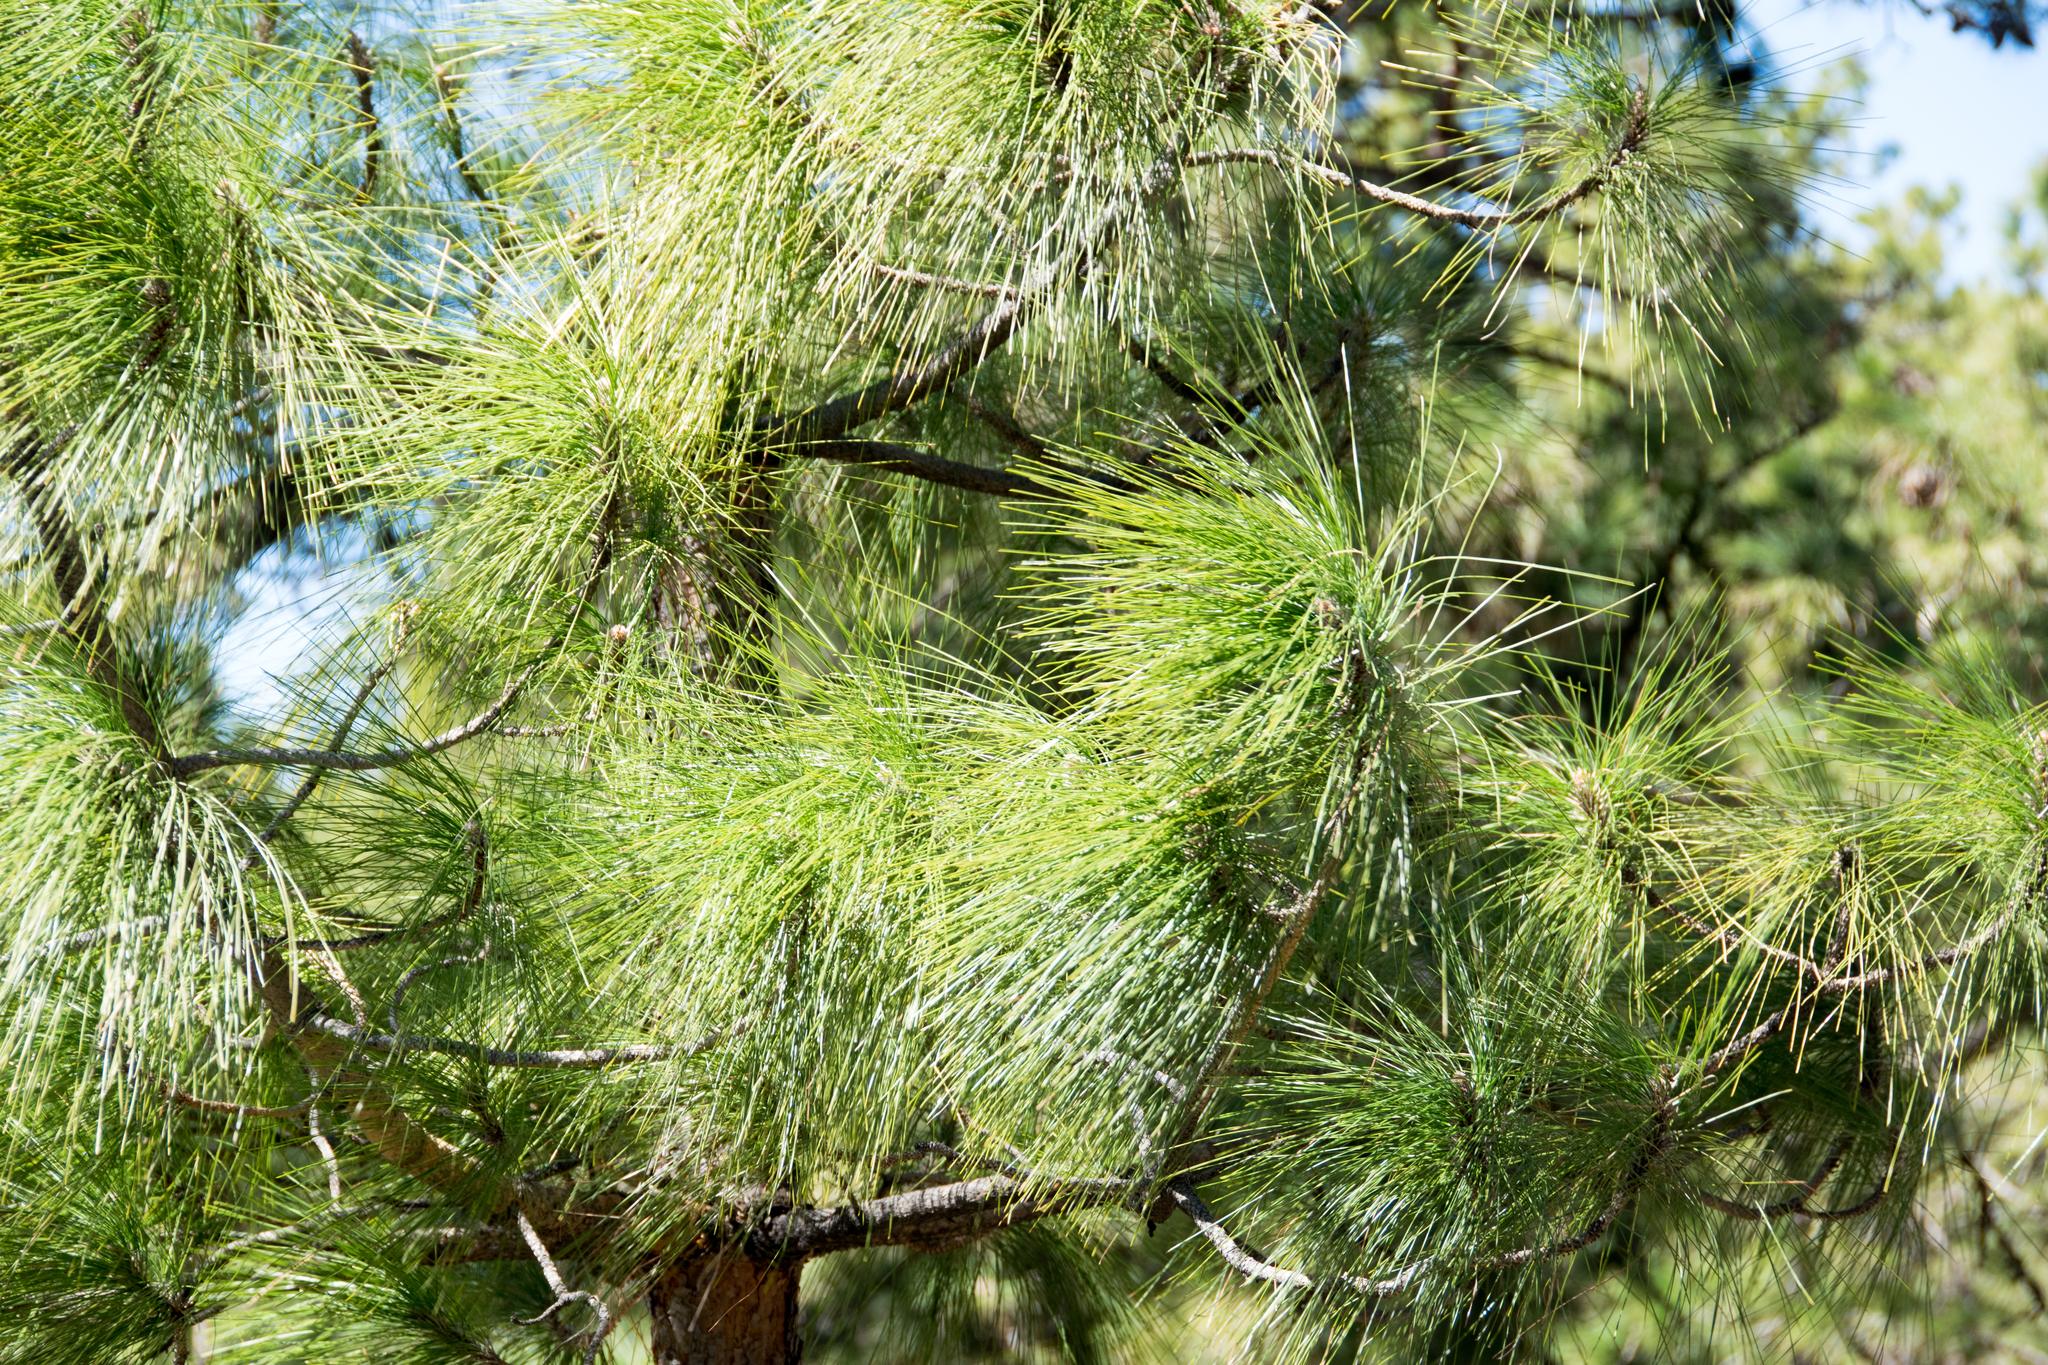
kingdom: Plantae
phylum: Tracheophyta
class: Pinopsida
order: Pinales
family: Pinaceae
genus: Pinus
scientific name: Pinus canariensis
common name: Canary islands pine
